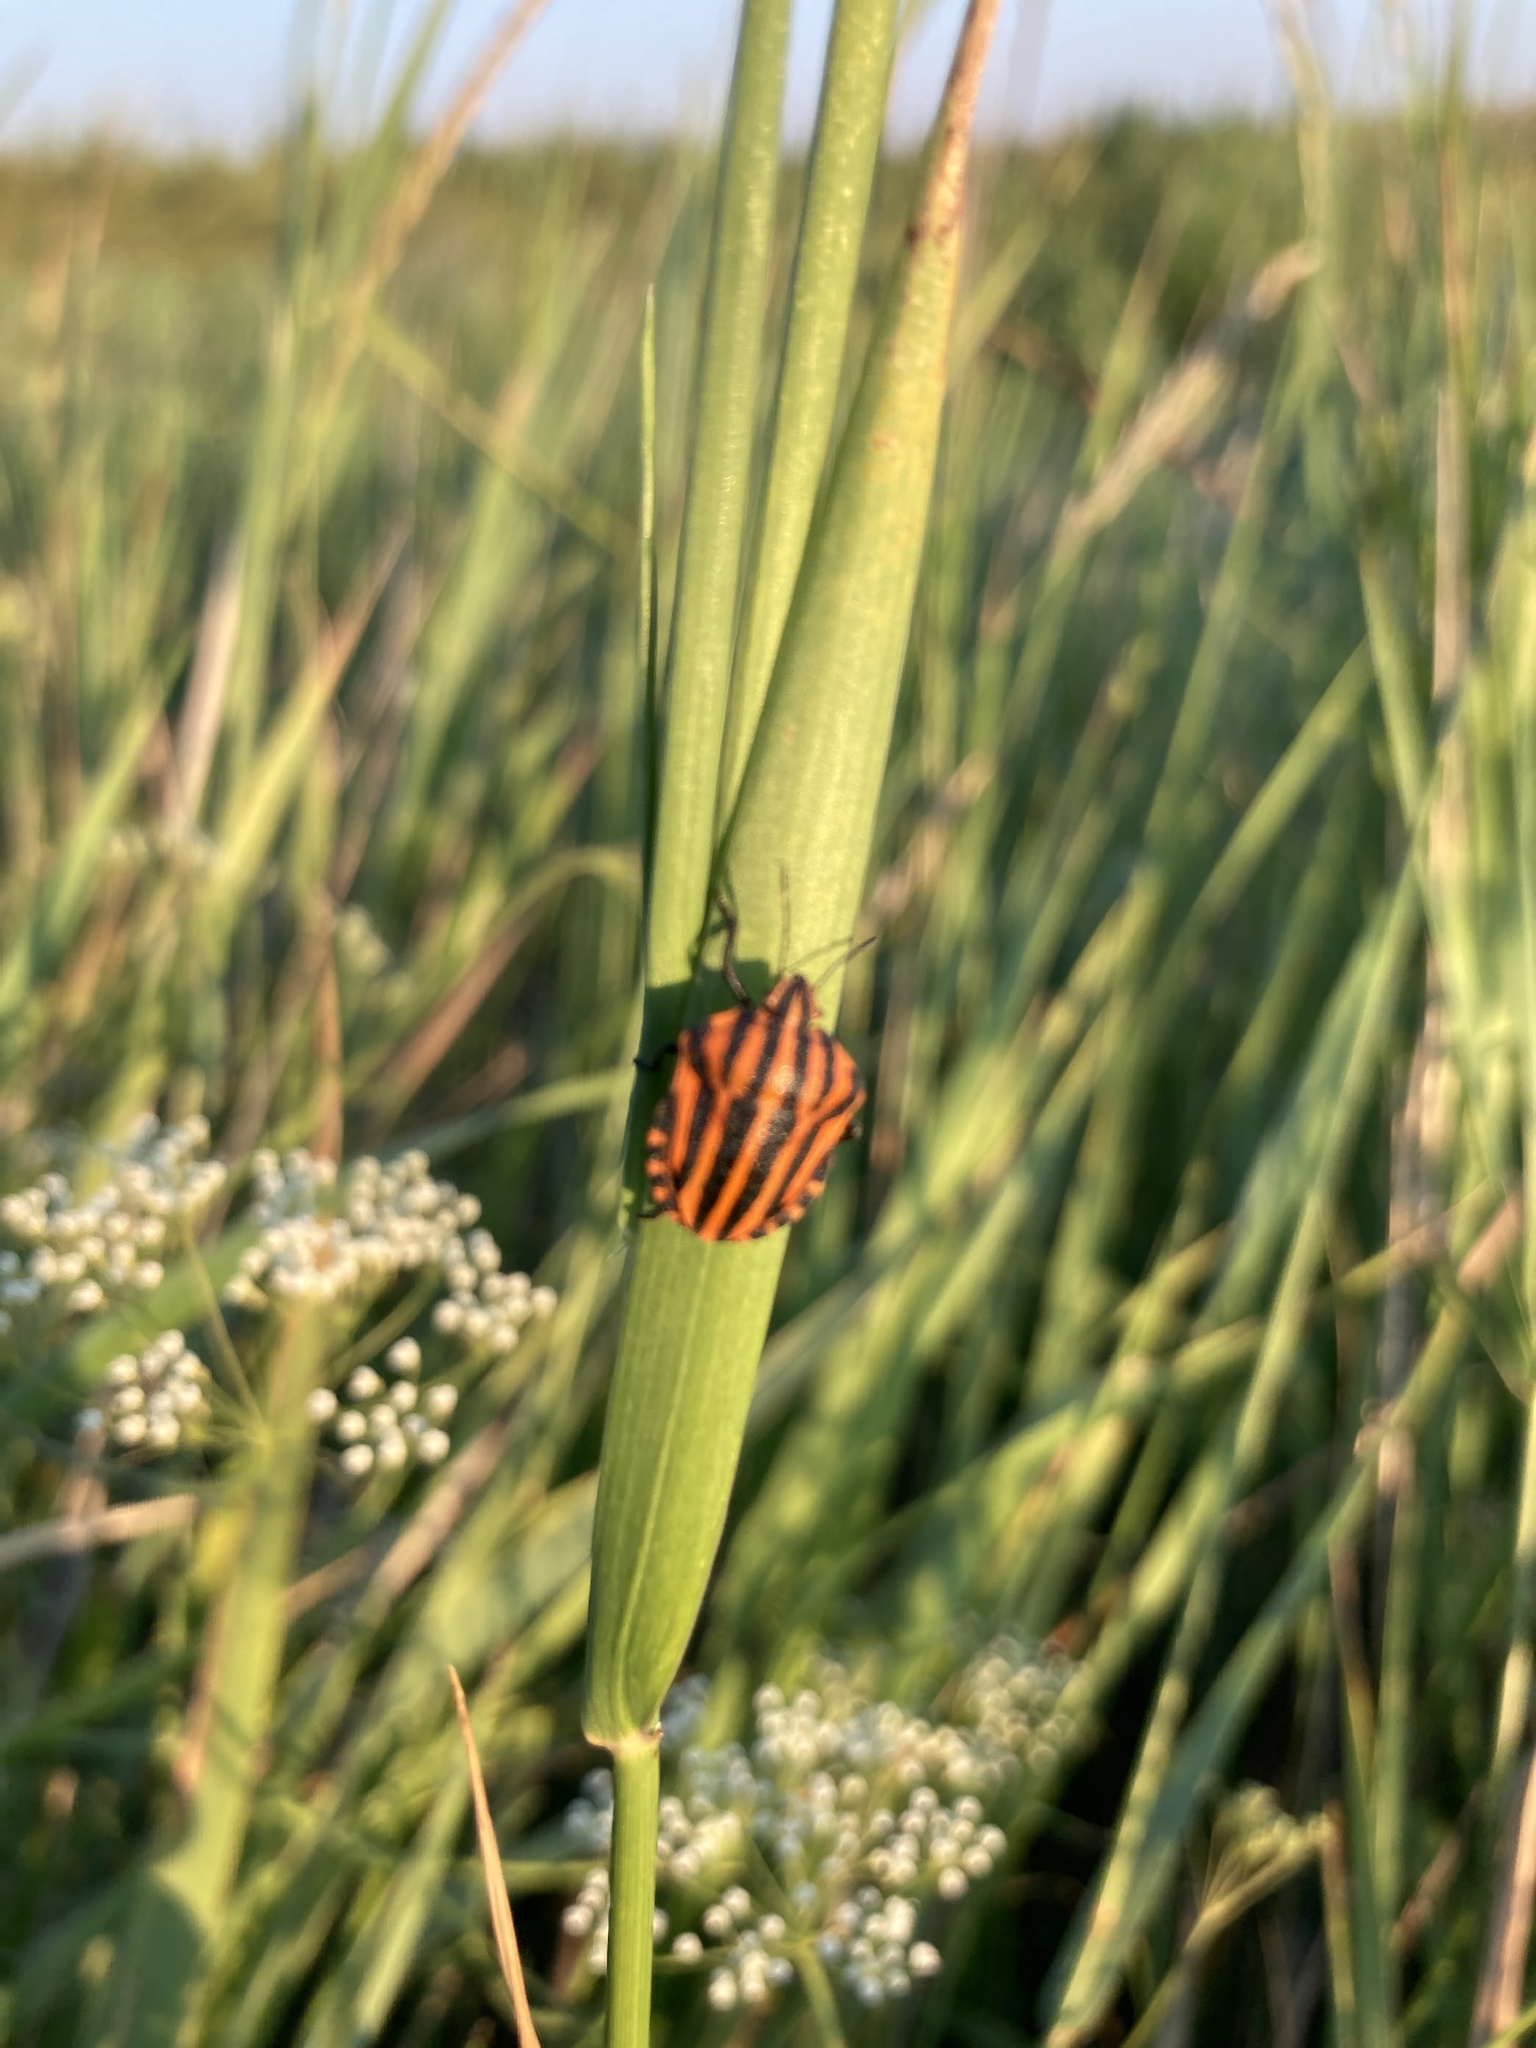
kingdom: Animalia
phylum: Arthropoda
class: Insecta
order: Hemiptera
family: Pentatomidae
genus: Graphosoma
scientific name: Graphosoma italicum
